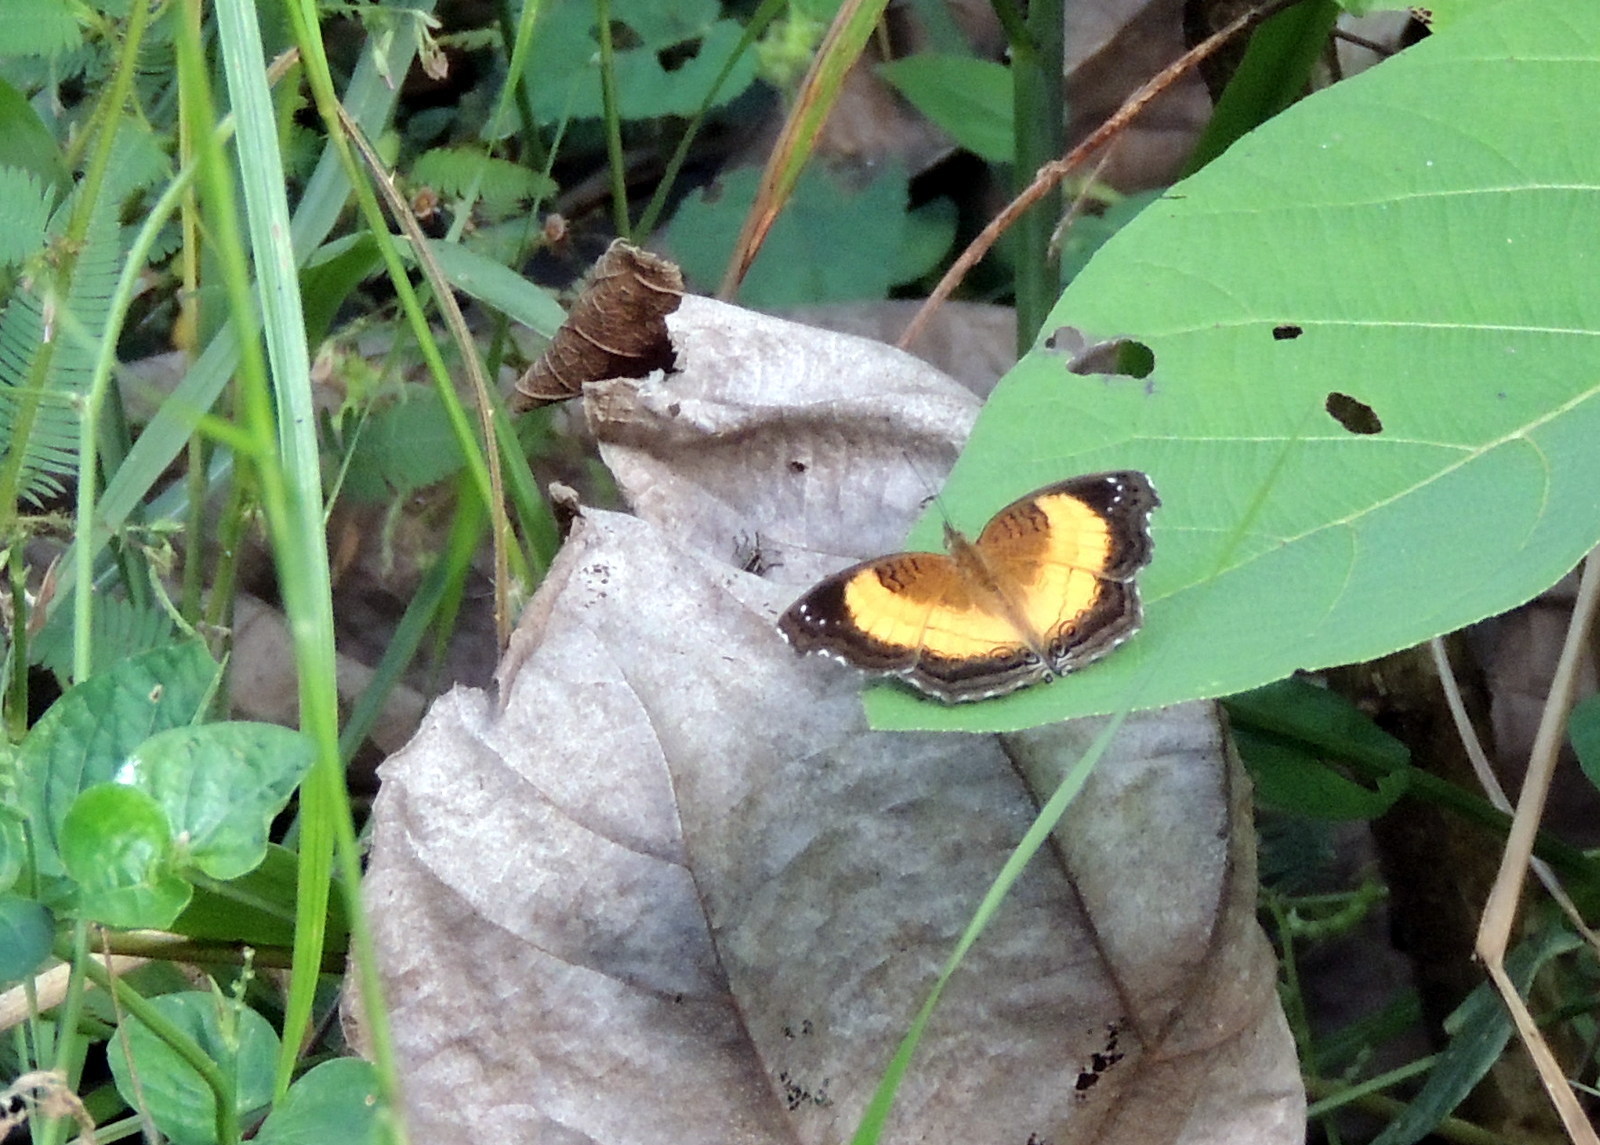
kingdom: Animalia
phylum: Arthropoda
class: Insecta
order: Lepidoptera
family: Nymphalidae
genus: Junonia
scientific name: Junonia terea
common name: Soldier pansy
